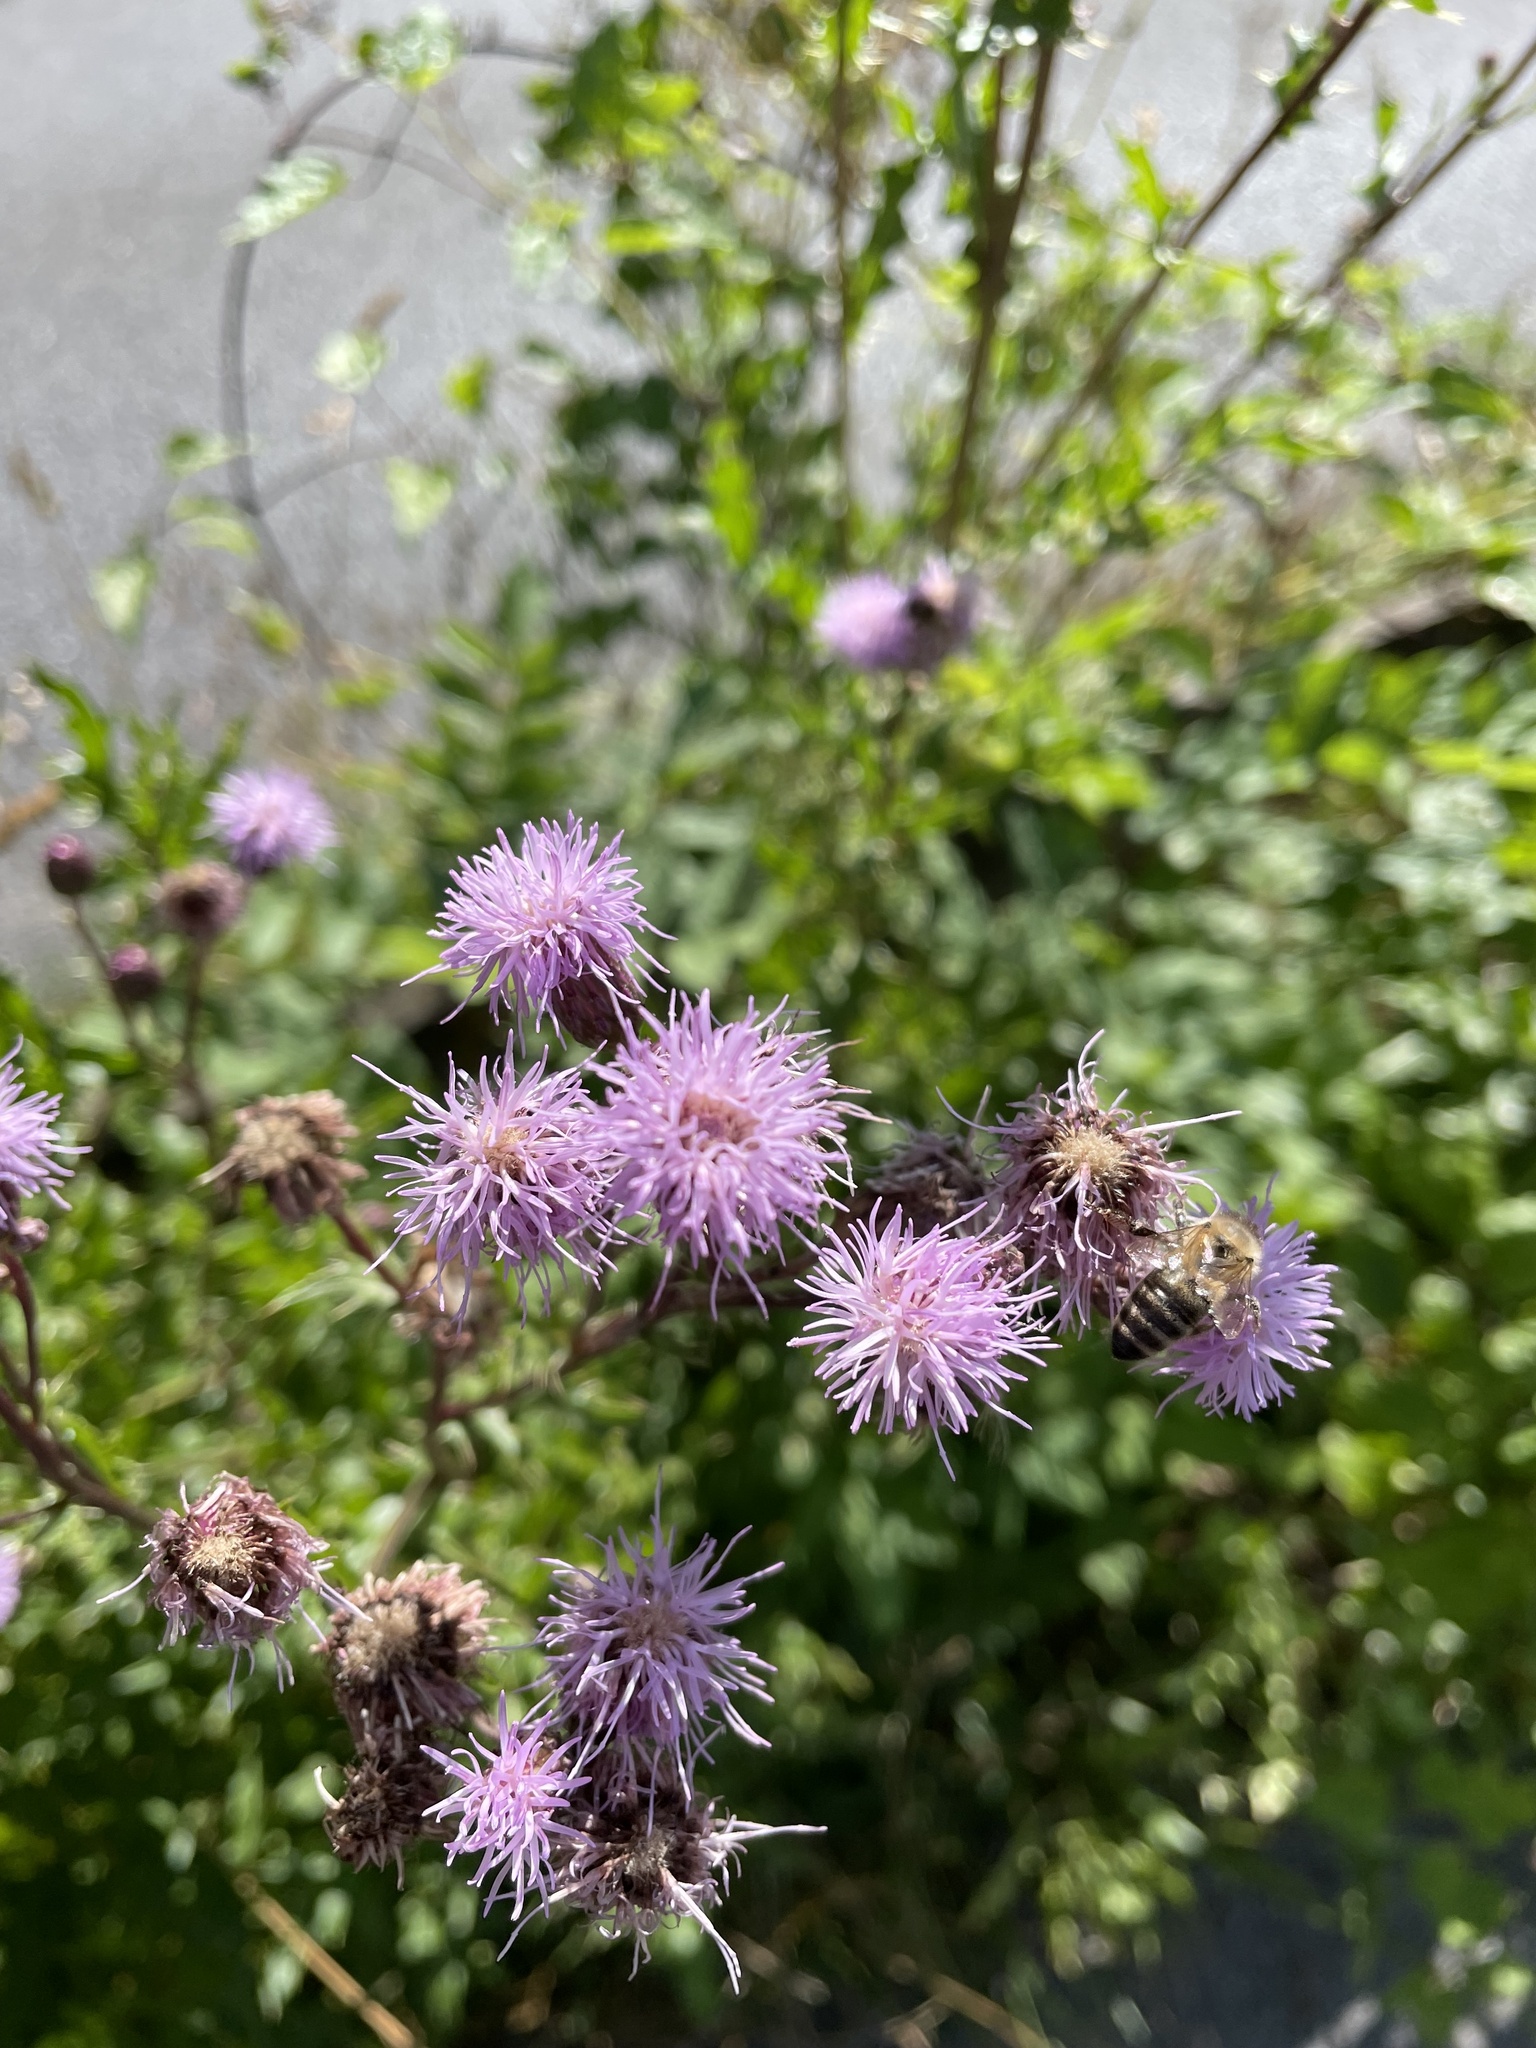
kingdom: Plantae
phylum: Tracheophyta
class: Magnoliopsida
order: Asterales
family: Asteraceae
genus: Cirsium
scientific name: Cirsium arvense
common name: Creeping thistle
